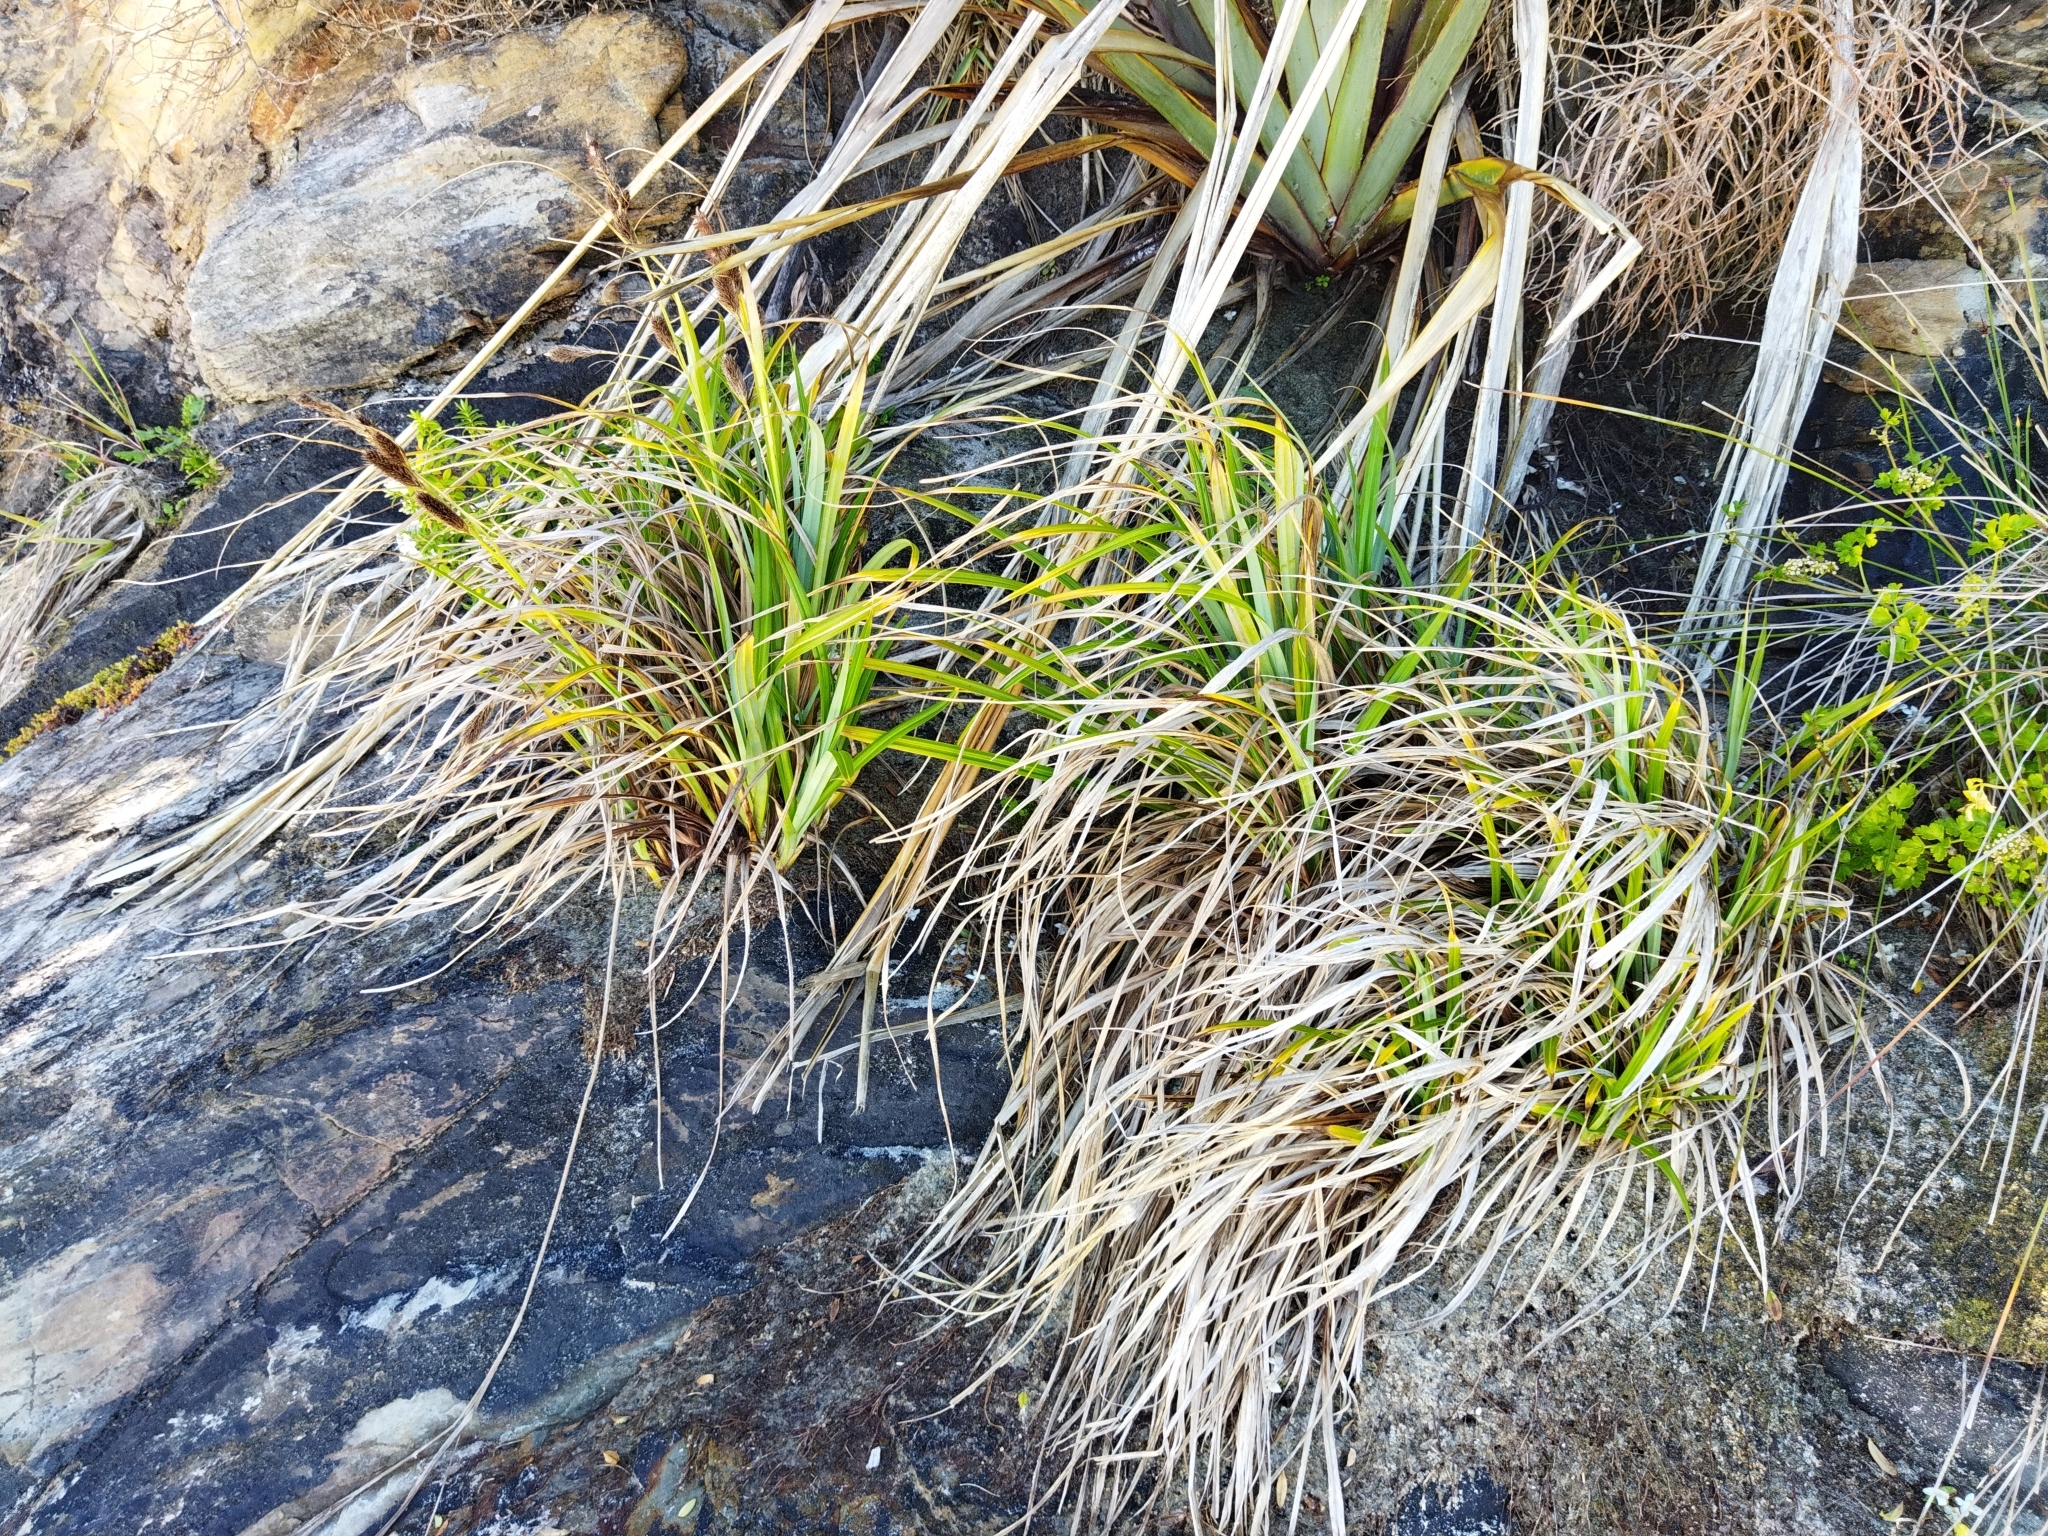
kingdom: Plantae
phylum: Tracheophyta
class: Liliopsida
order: Poales
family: Cyperaceae
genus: Carex
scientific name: Carex trifida
